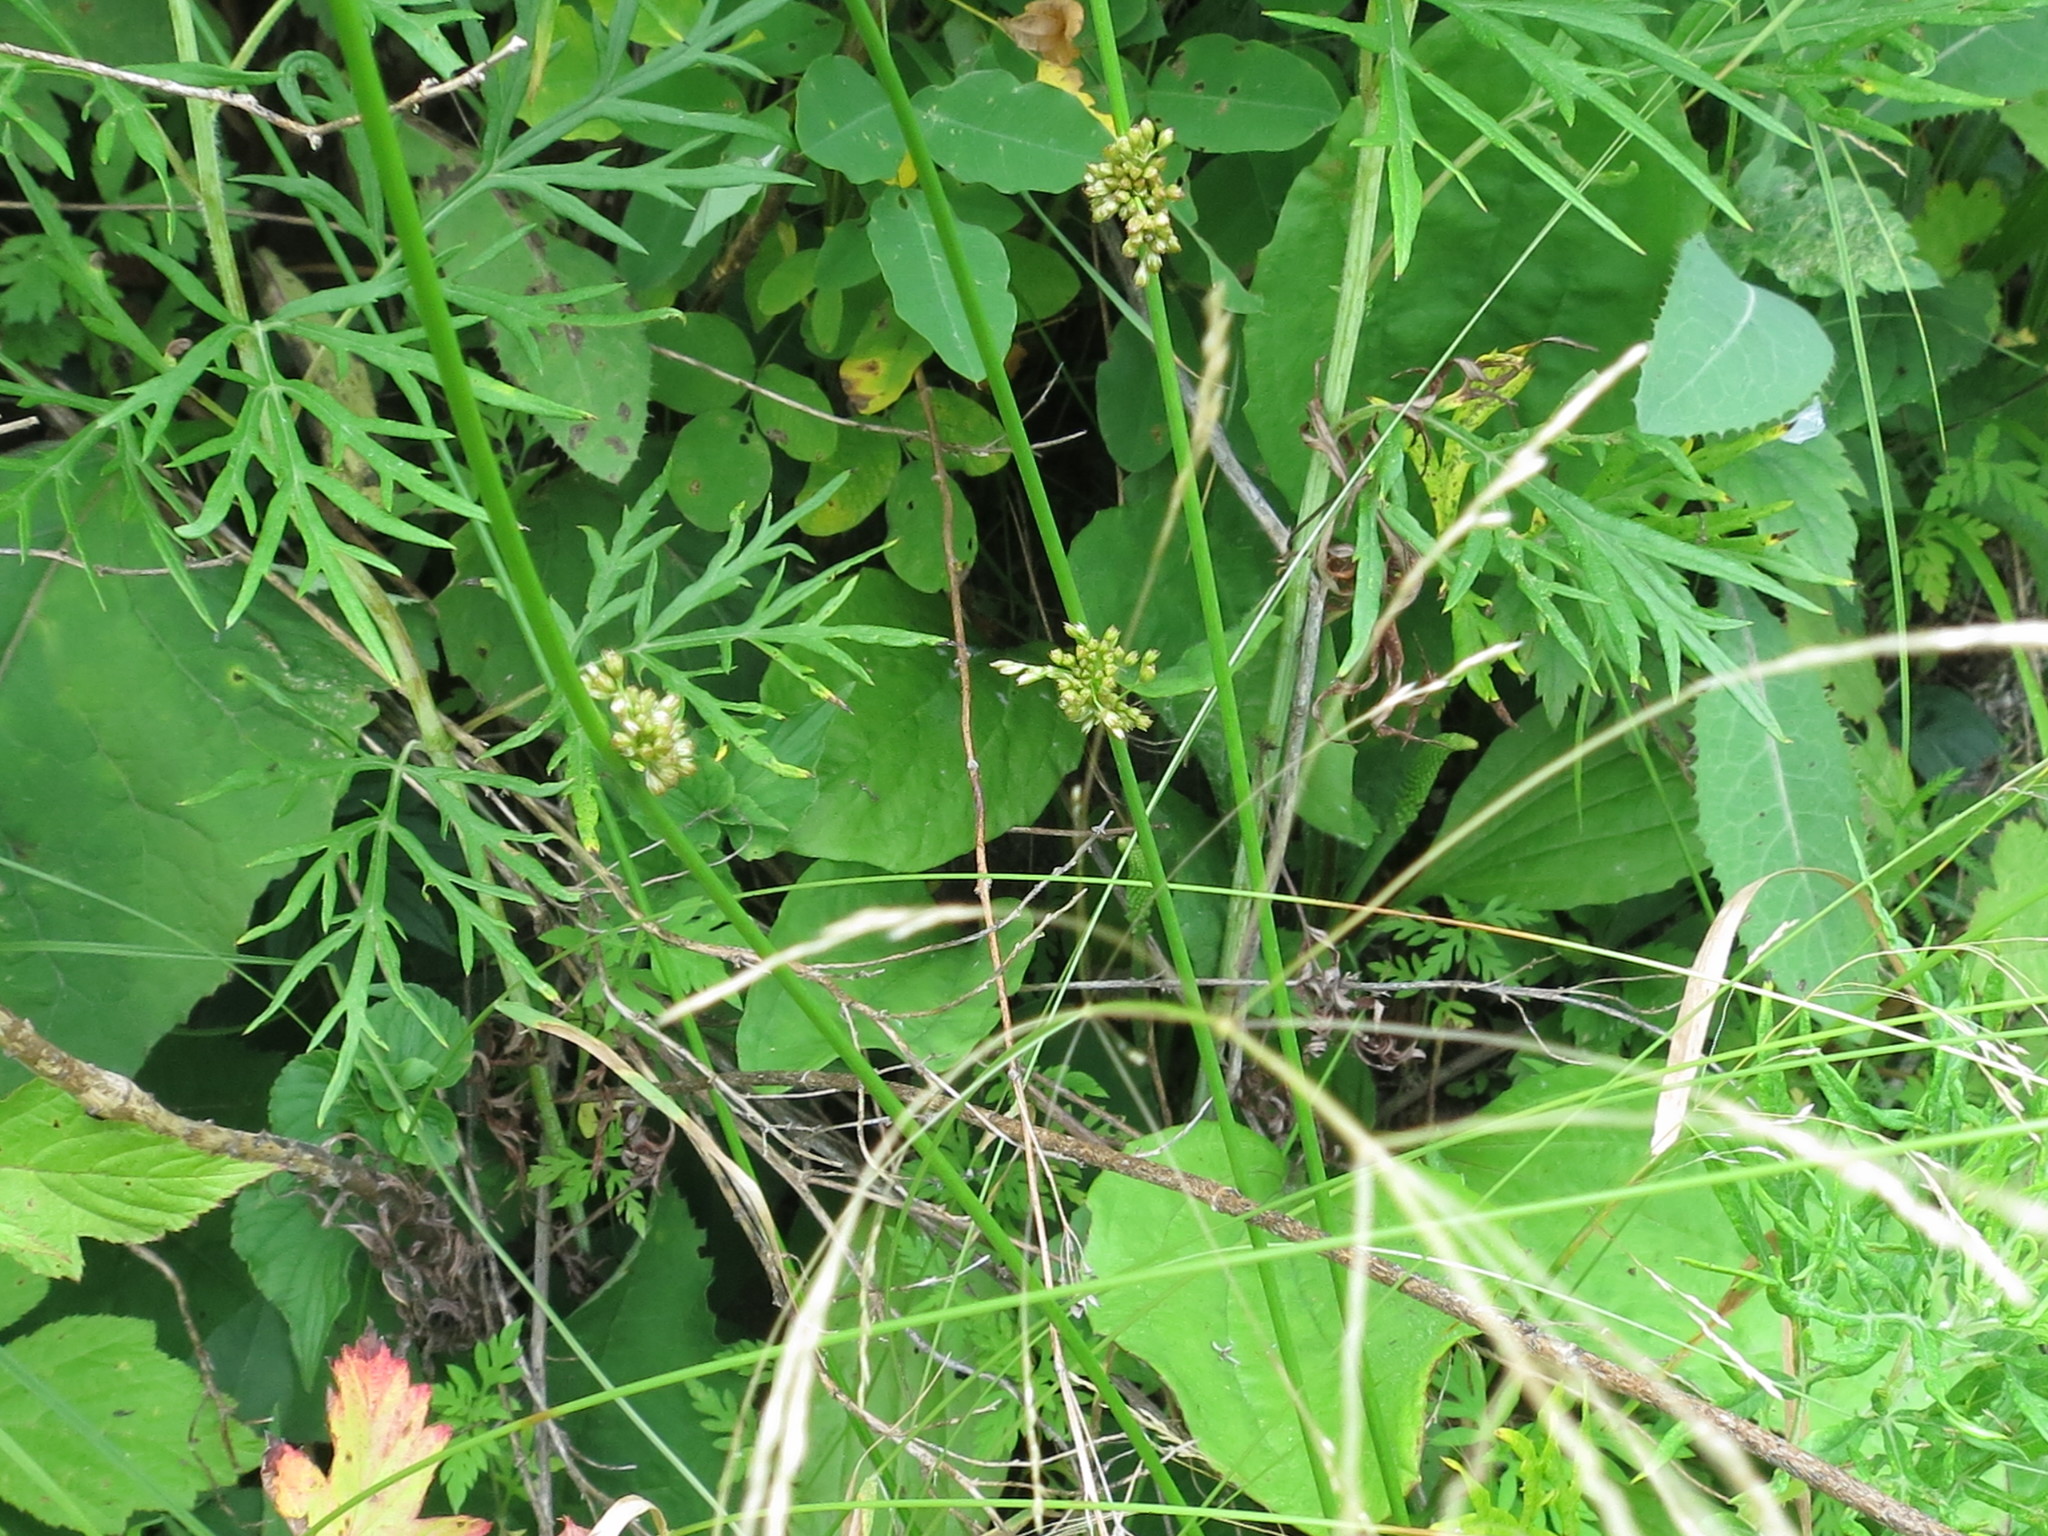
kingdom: Plantae
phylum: Tracheophyta
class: Liliopsida
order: Poales
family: Juncaceae
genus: Juncus
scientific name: Juncus decipiens
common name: Lamp rush
